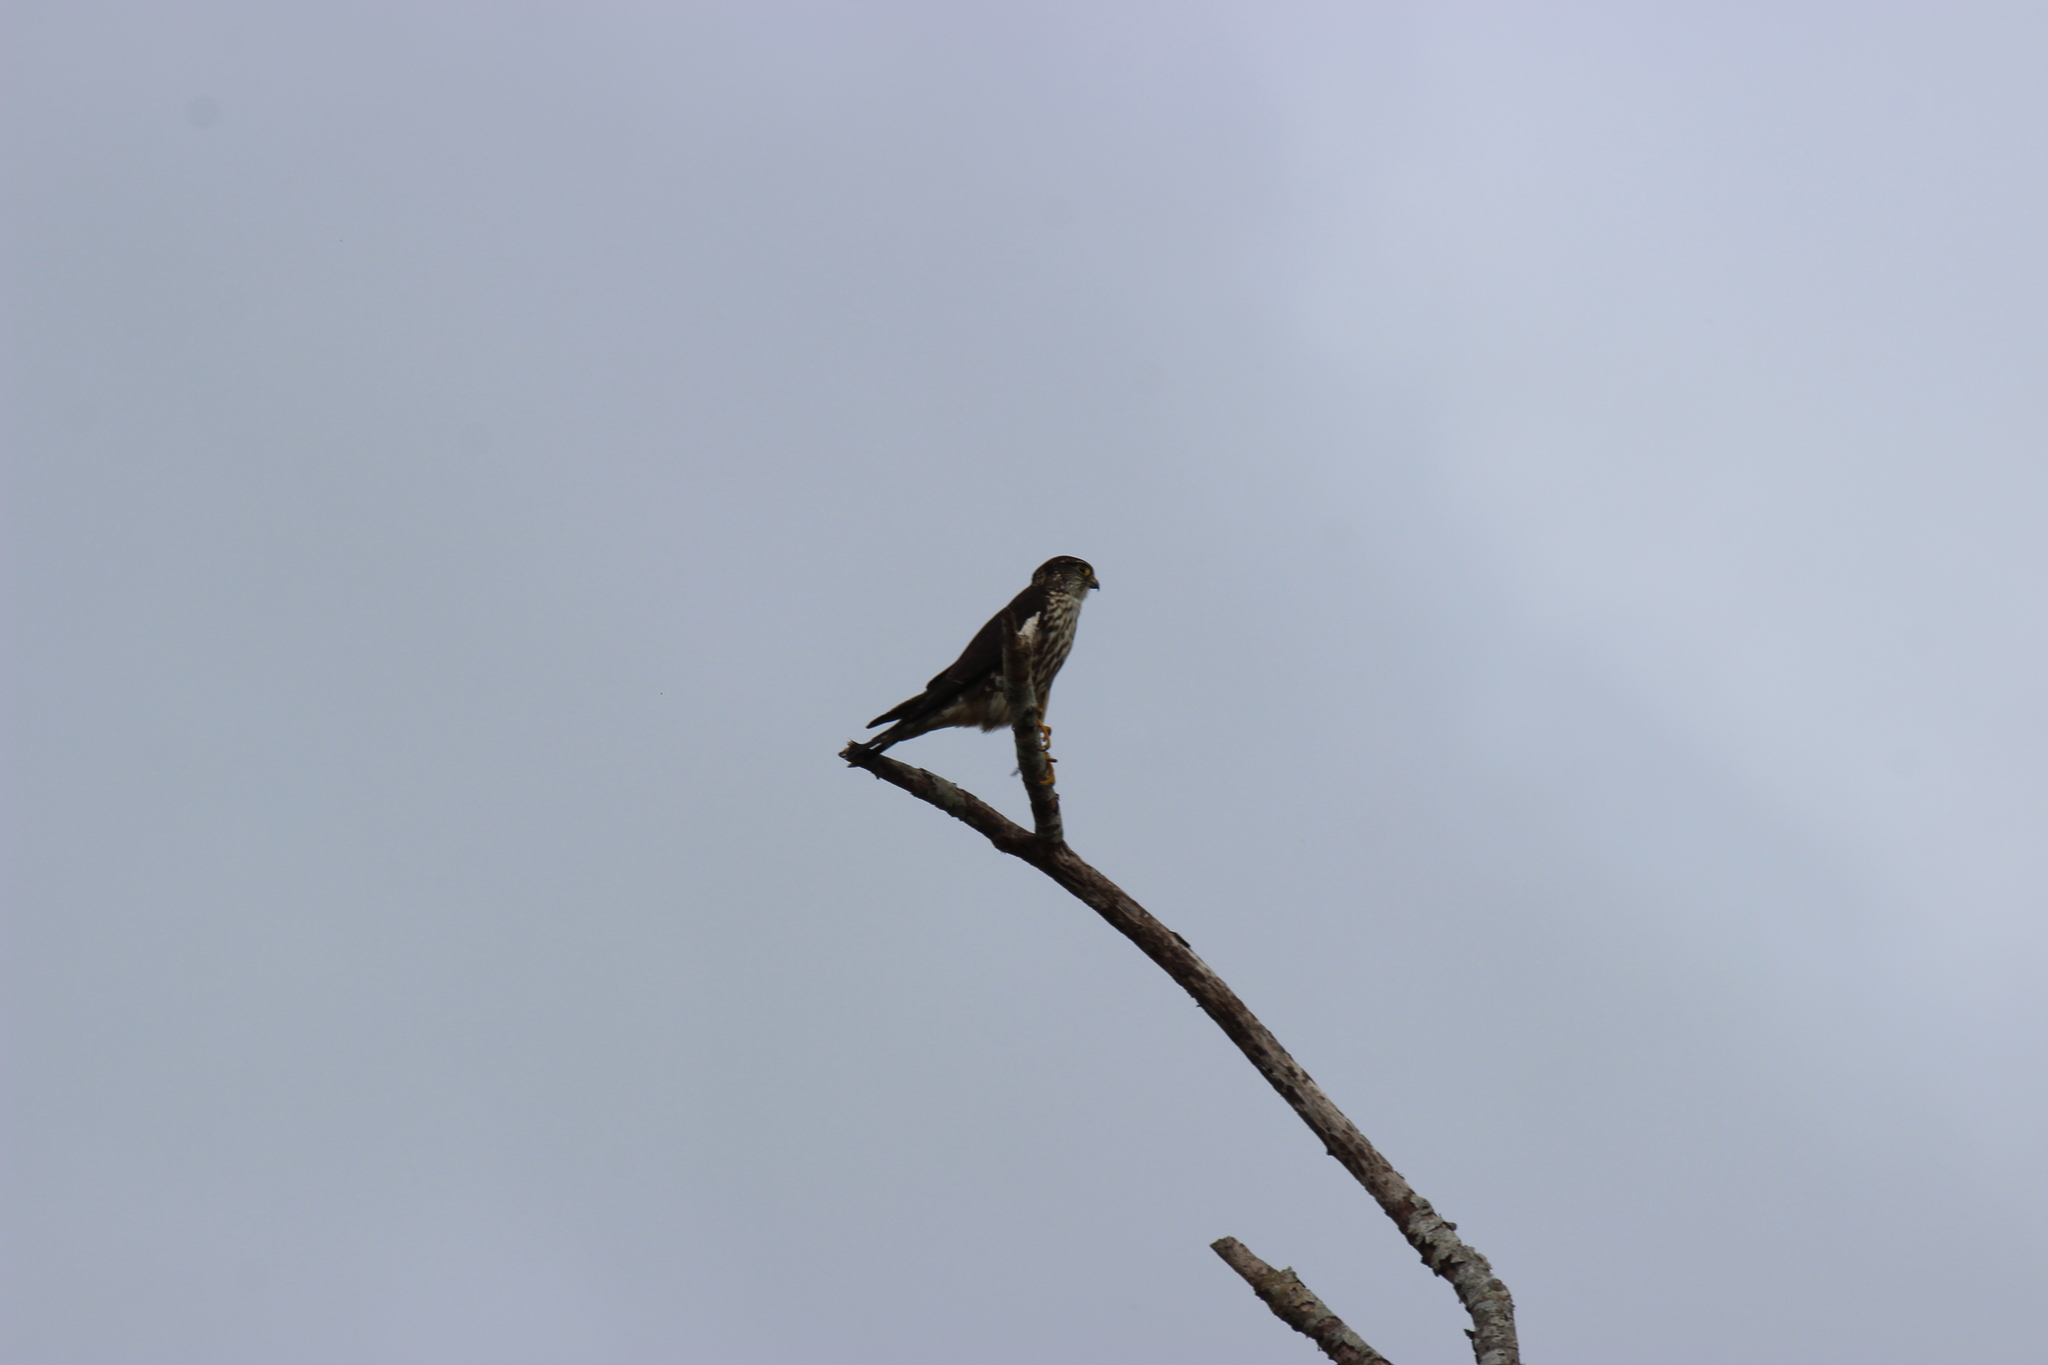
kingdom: Animalia
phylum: Chordata
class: Aves
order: Falconiformes
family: Falconidae
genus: Falco
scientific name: Falco columbarius
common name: Merlin
